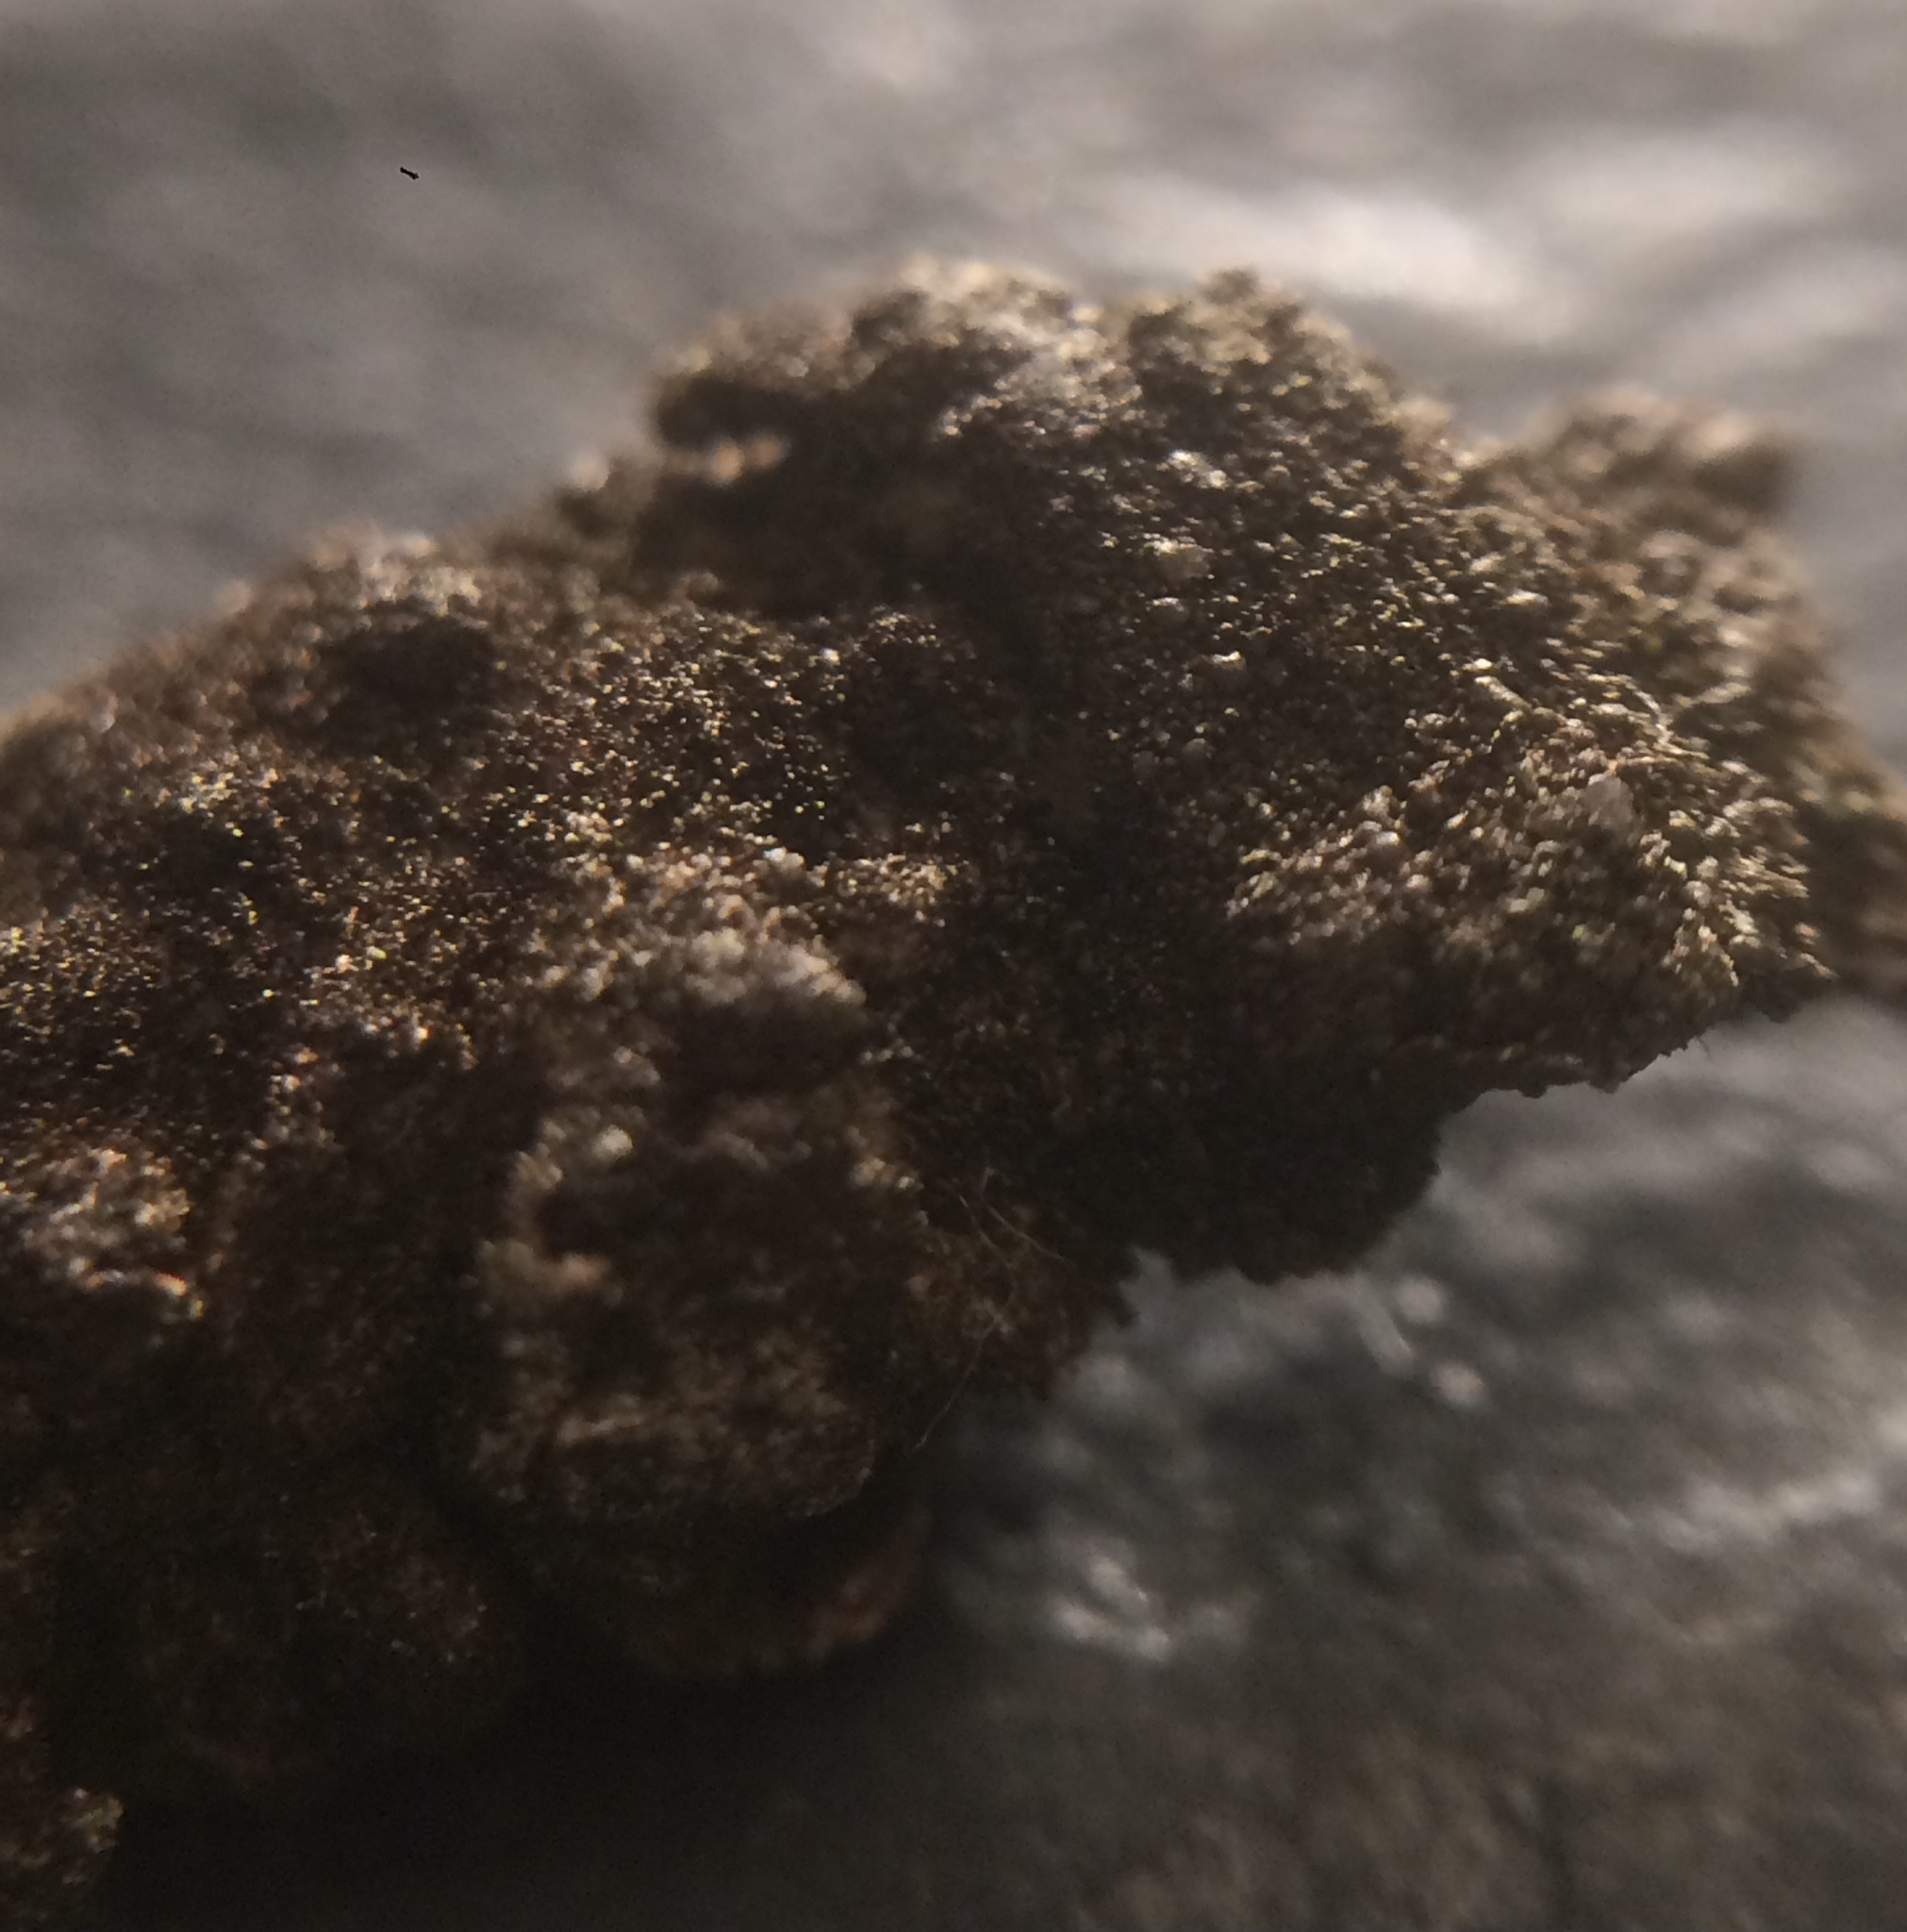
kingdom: Fungi
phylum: Ascomycota
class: Lecanoromycetes
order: Lecanorales
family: Parmeliaceae
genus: Melanelixia
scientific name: Melanelixia fuliginosa
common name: Shiny camouflage lichen
